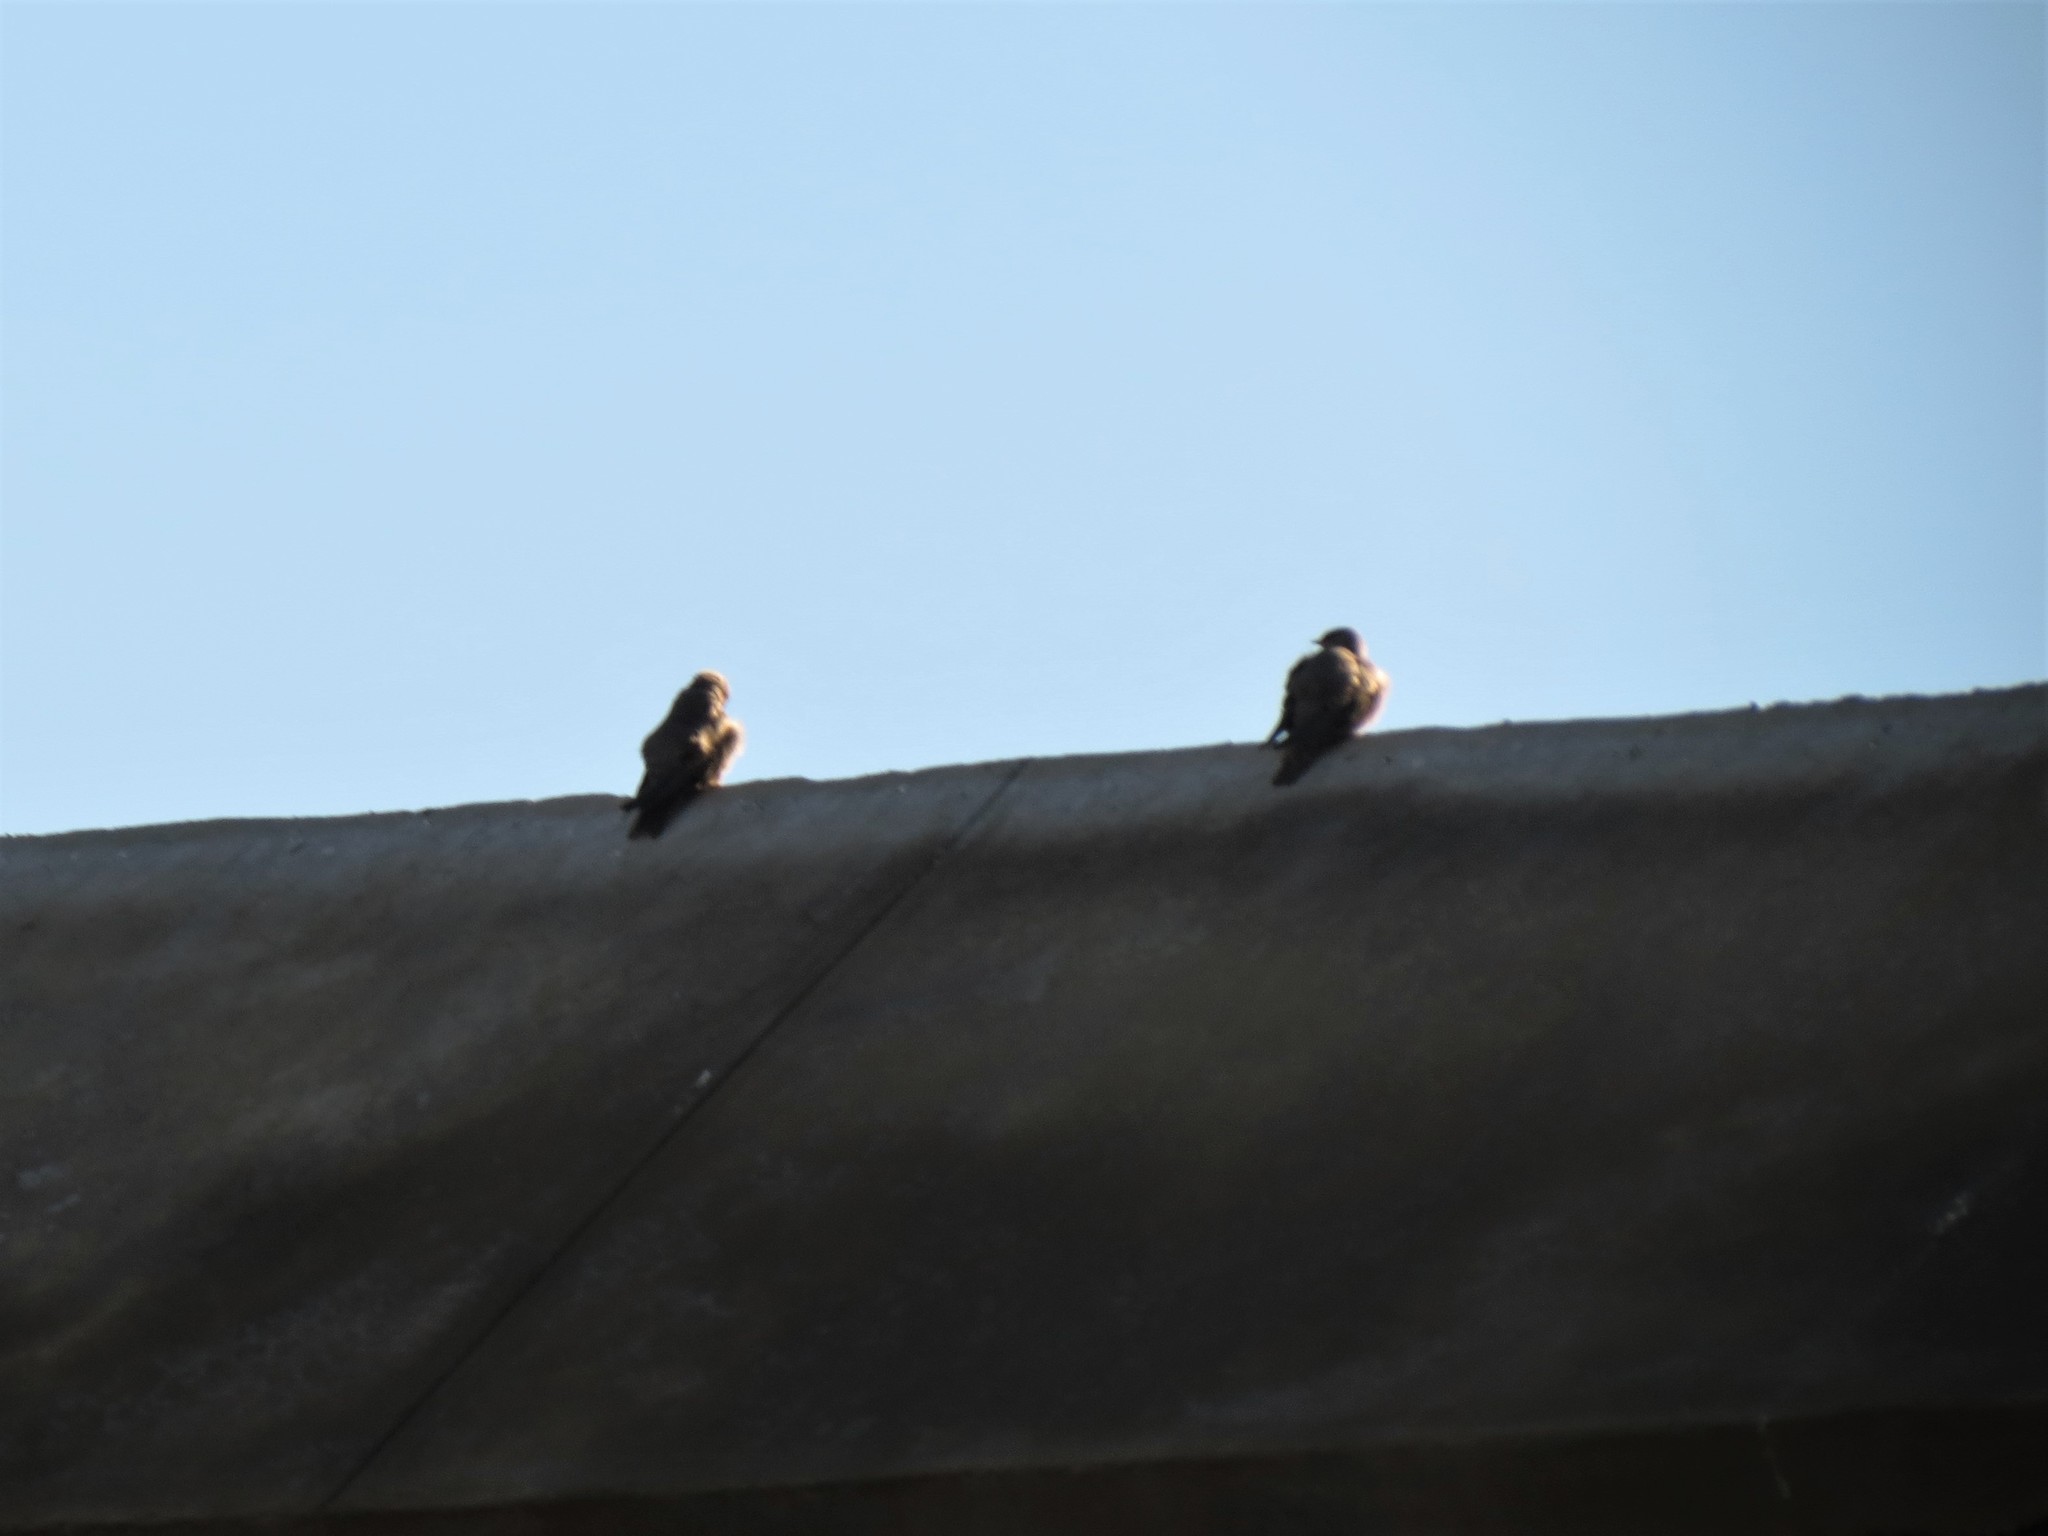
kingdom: Animalia
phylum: Chordata
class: Aves
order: Passeriformes
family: Hirundinidae
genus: Ptyonoprogne
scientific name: Ptyonoprogne fuligula
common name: Rock martin
